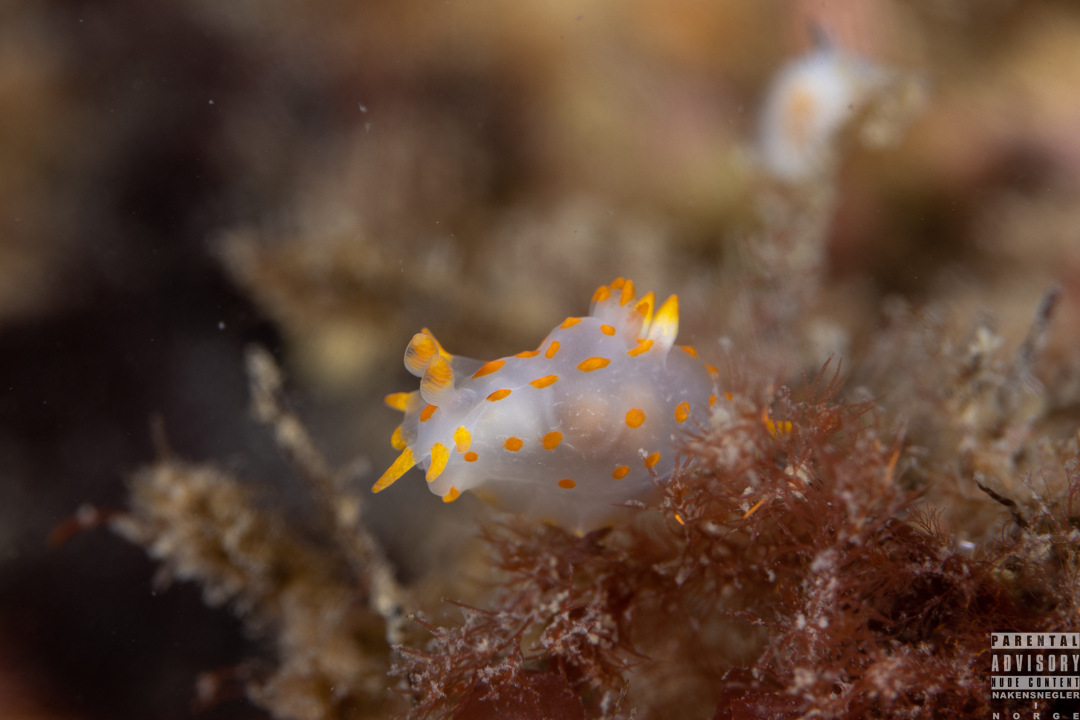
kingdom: Animalia
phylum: Mollusca
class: Gastropoda
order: Nudibranchia
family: Polyceridae
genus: Polycera
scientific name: Polycera quadrilineata
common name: Four-striped polycera
